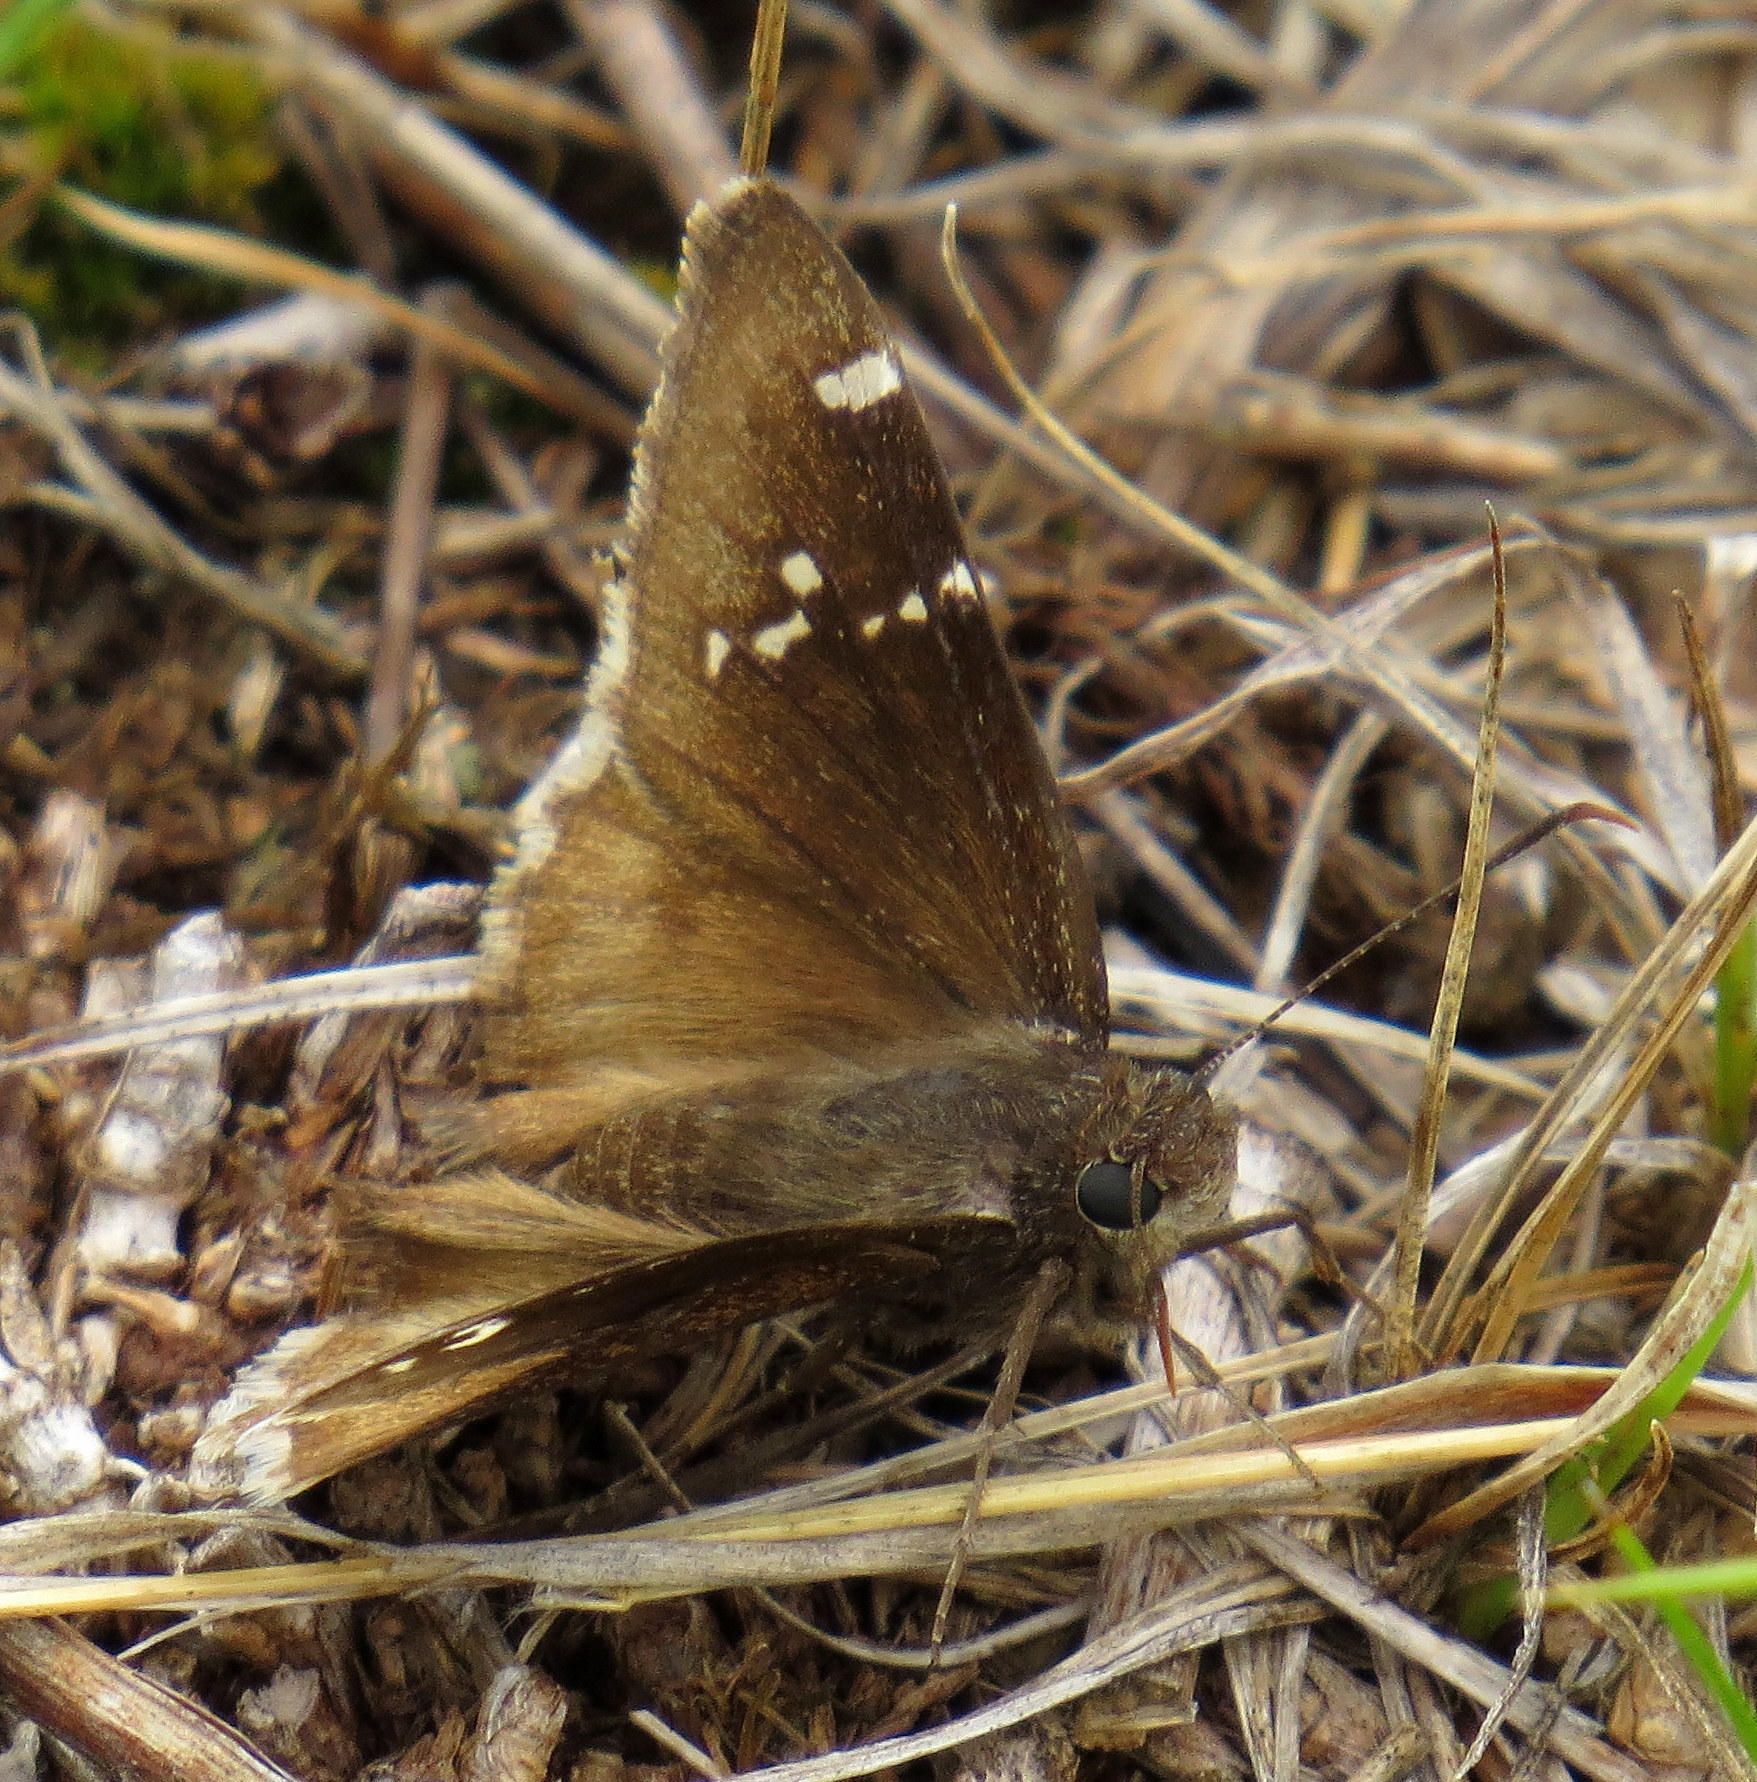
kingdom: Animalia
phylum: Arthropoda
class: Insecta
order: Lepidoptera
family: Hesperiidae
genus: Thorybes
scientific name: Thorybes daunus
